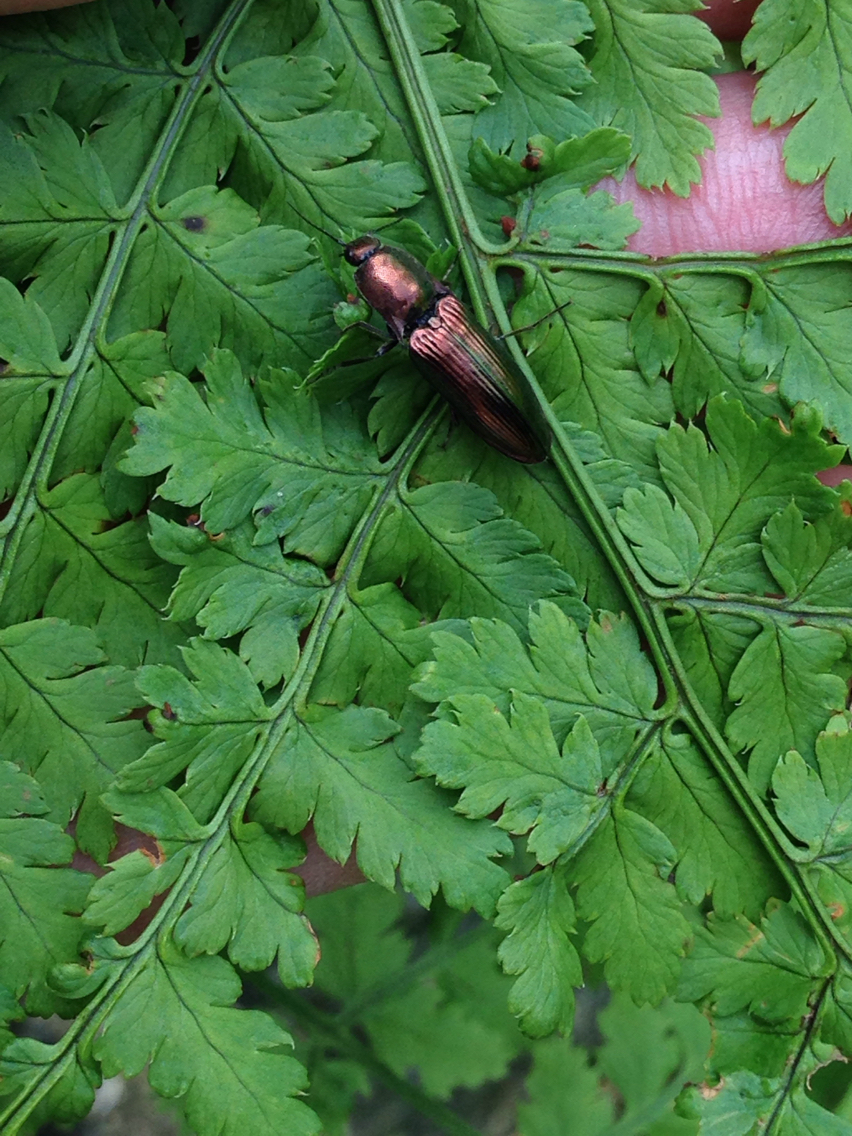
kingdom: Animalia
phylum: Arthropoda
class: Insecta
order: Coleoptera
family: Elateridae
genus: Nitidolimonius
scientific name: Nitidolimonius resplendens
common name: Resplendent click beetle
